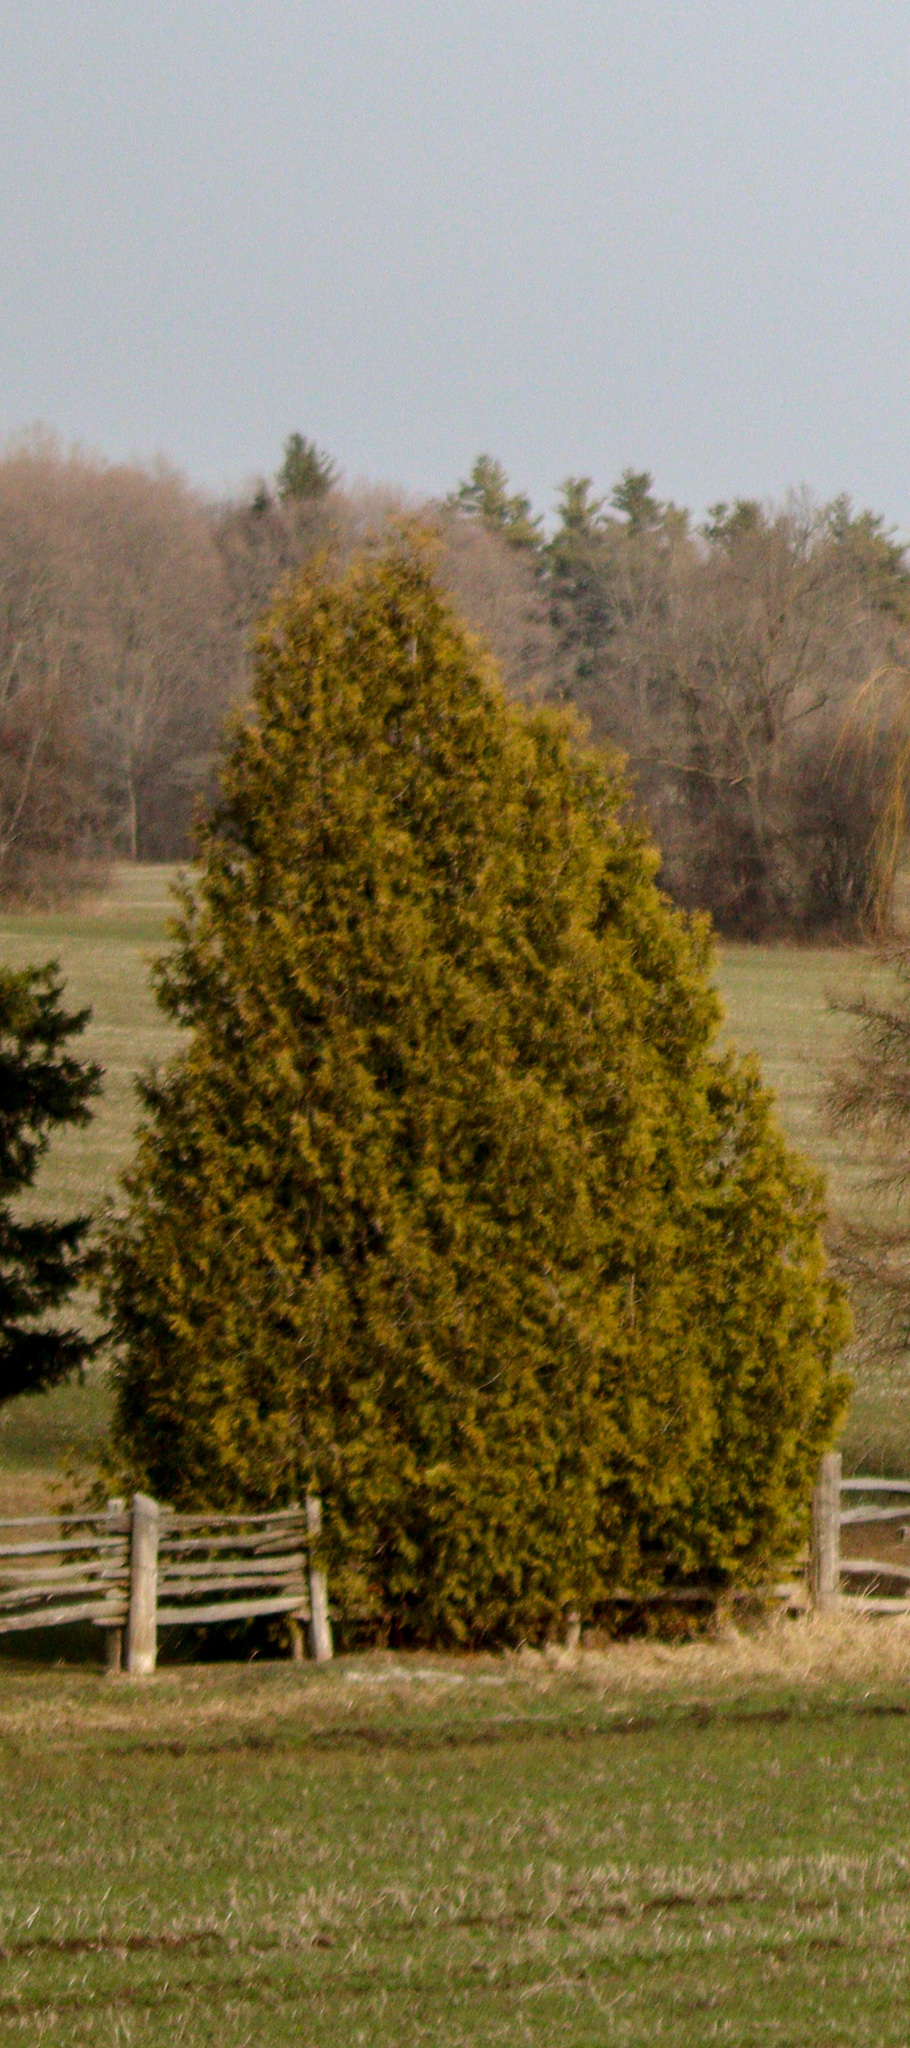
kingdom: Plantae
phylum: Tracheophyta
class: Pinopsida
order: Pinales
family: Cupressaceae
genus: Thuja
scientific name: Thuja occidentalis
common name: Northern white-cedar
